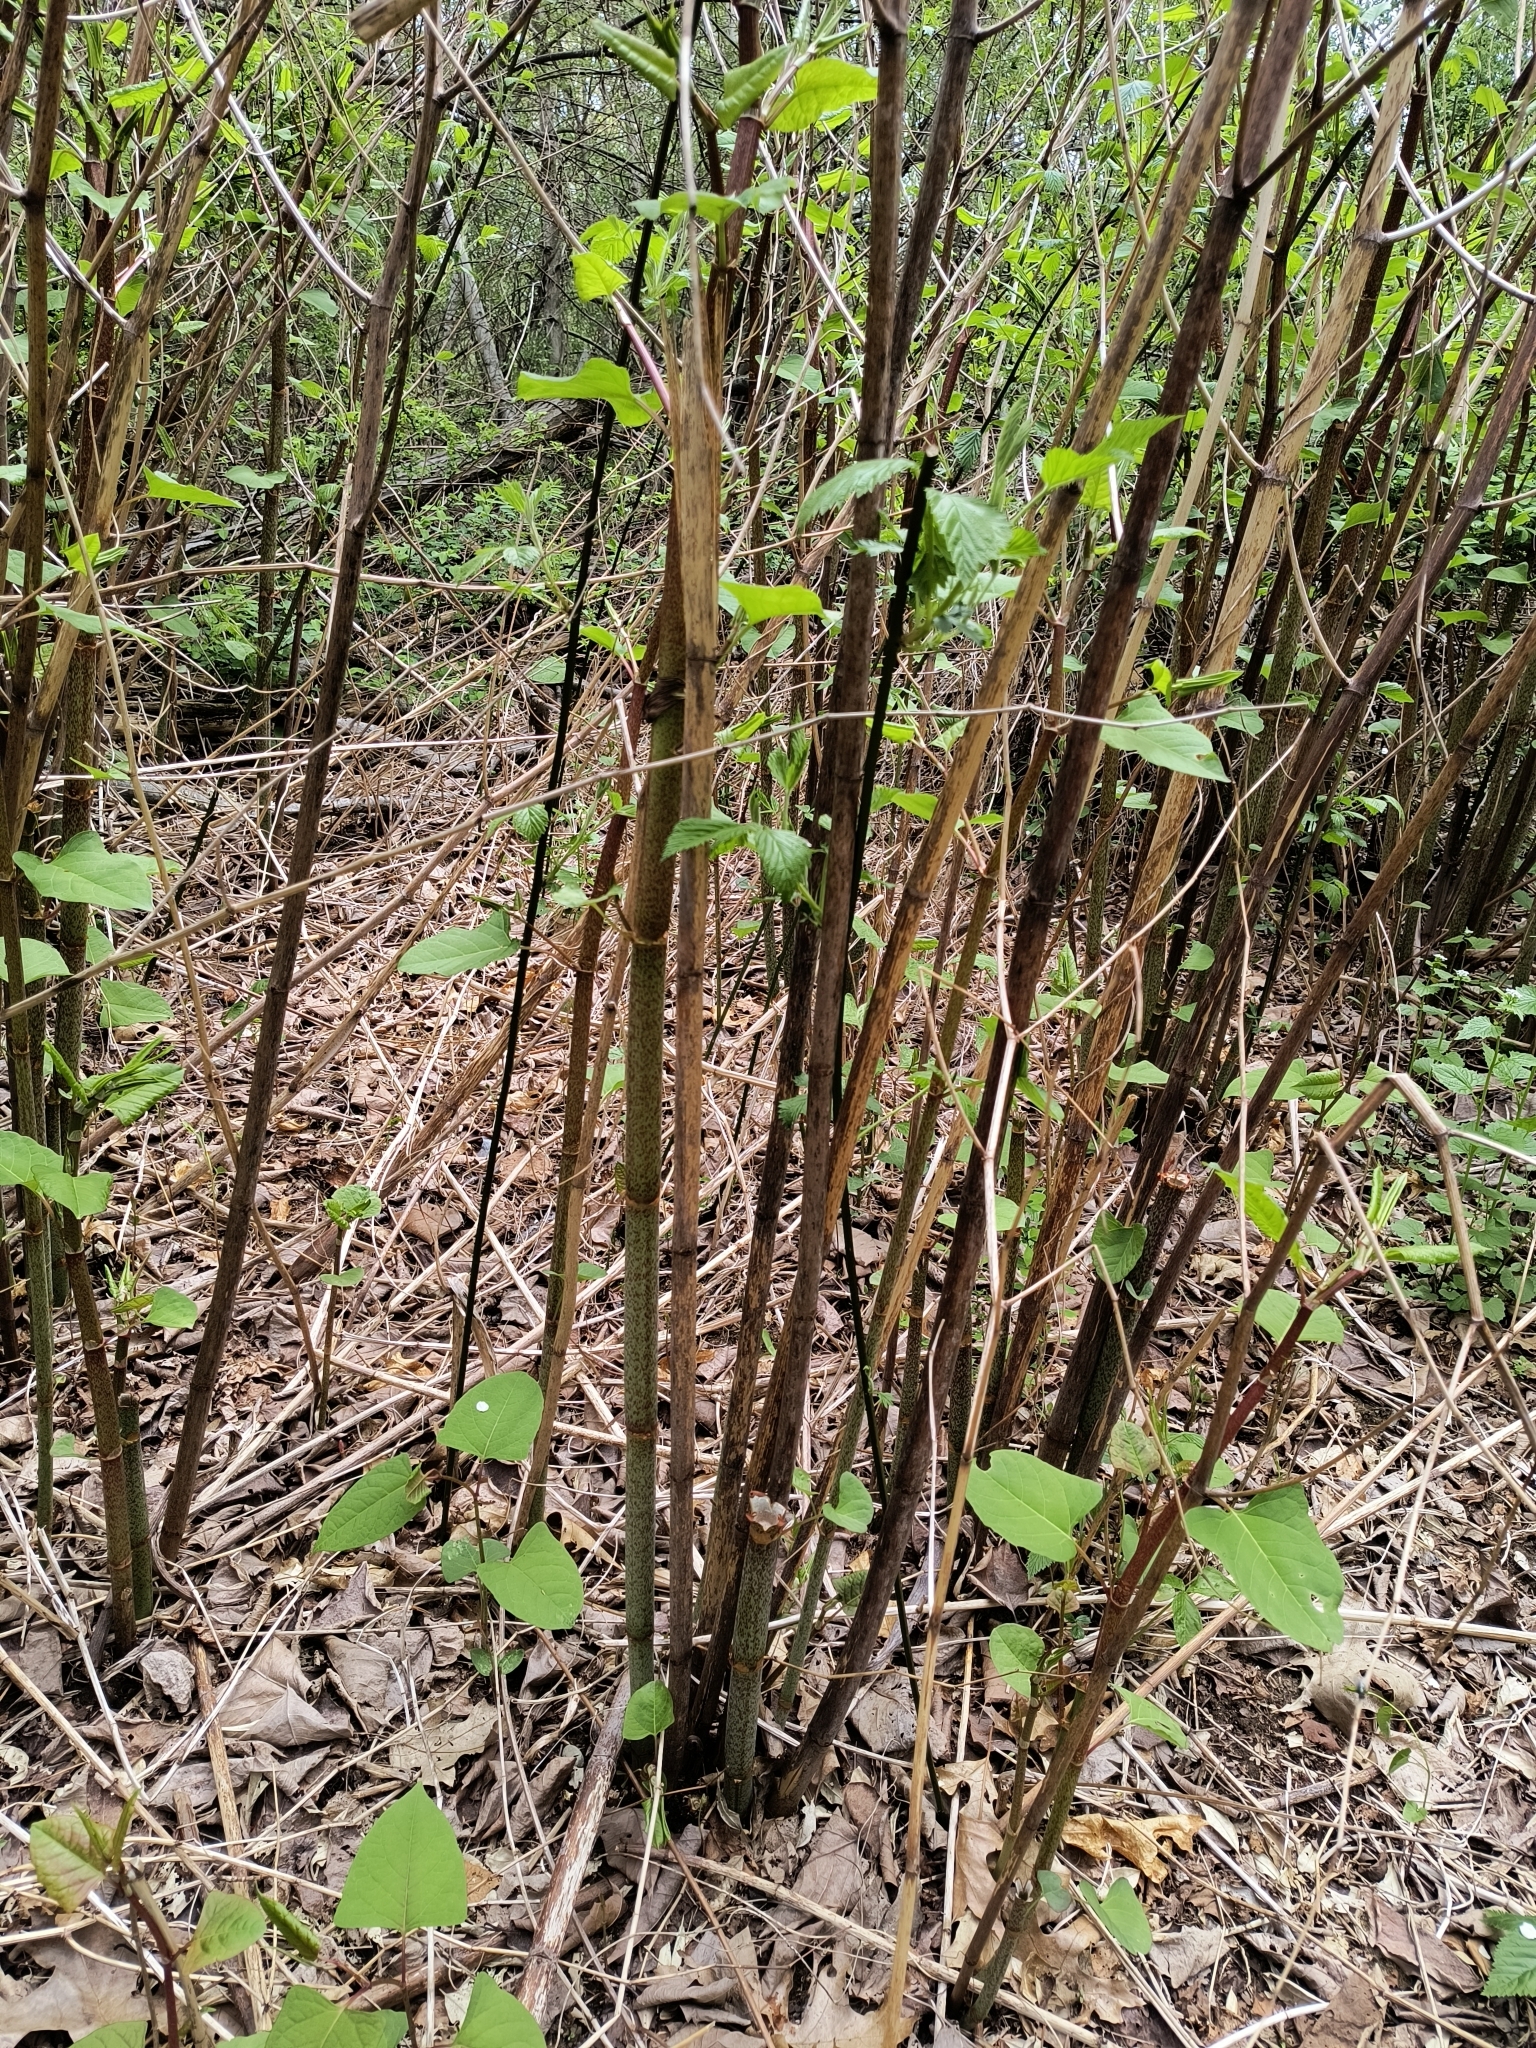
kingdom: Plantae
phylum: Tracheophyta
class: Magnoliopsida
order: Caryophyllales
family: Polygonaceae
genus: Reynoutria
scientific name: Reynoutria japonica
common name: Japanese knotweed
